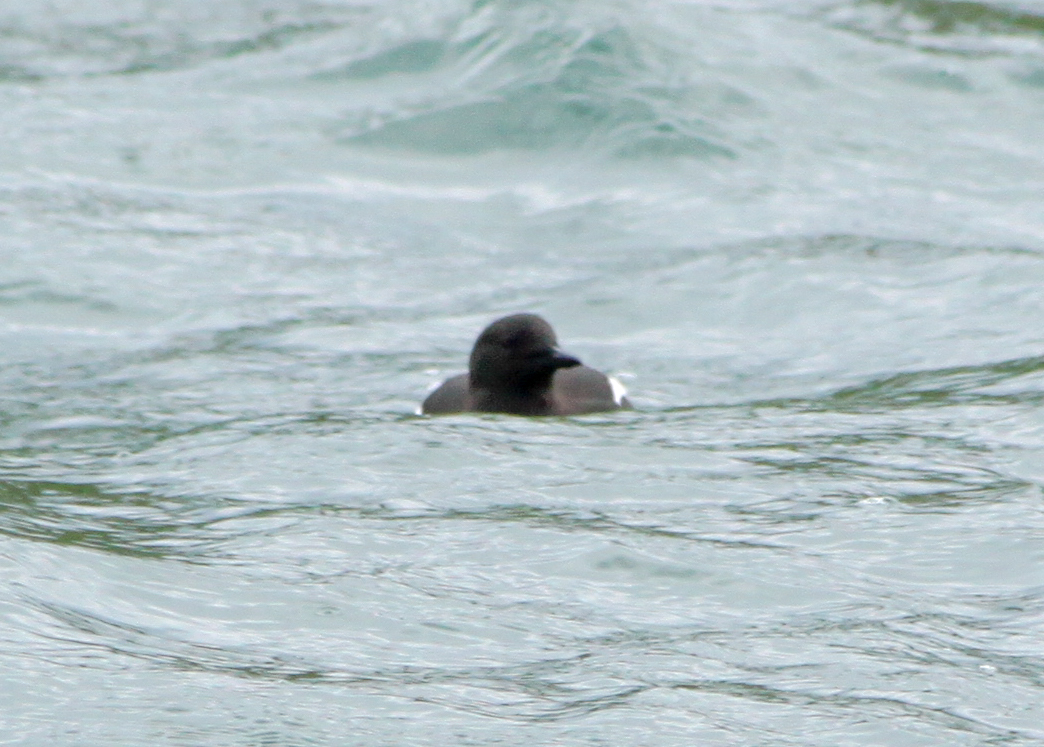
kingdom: Animalia
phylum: Chordata
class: Aves
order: Charadriiformes
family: Alcidae
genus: Cepphus
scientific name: Cepphus grylle
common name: Black guillemot
